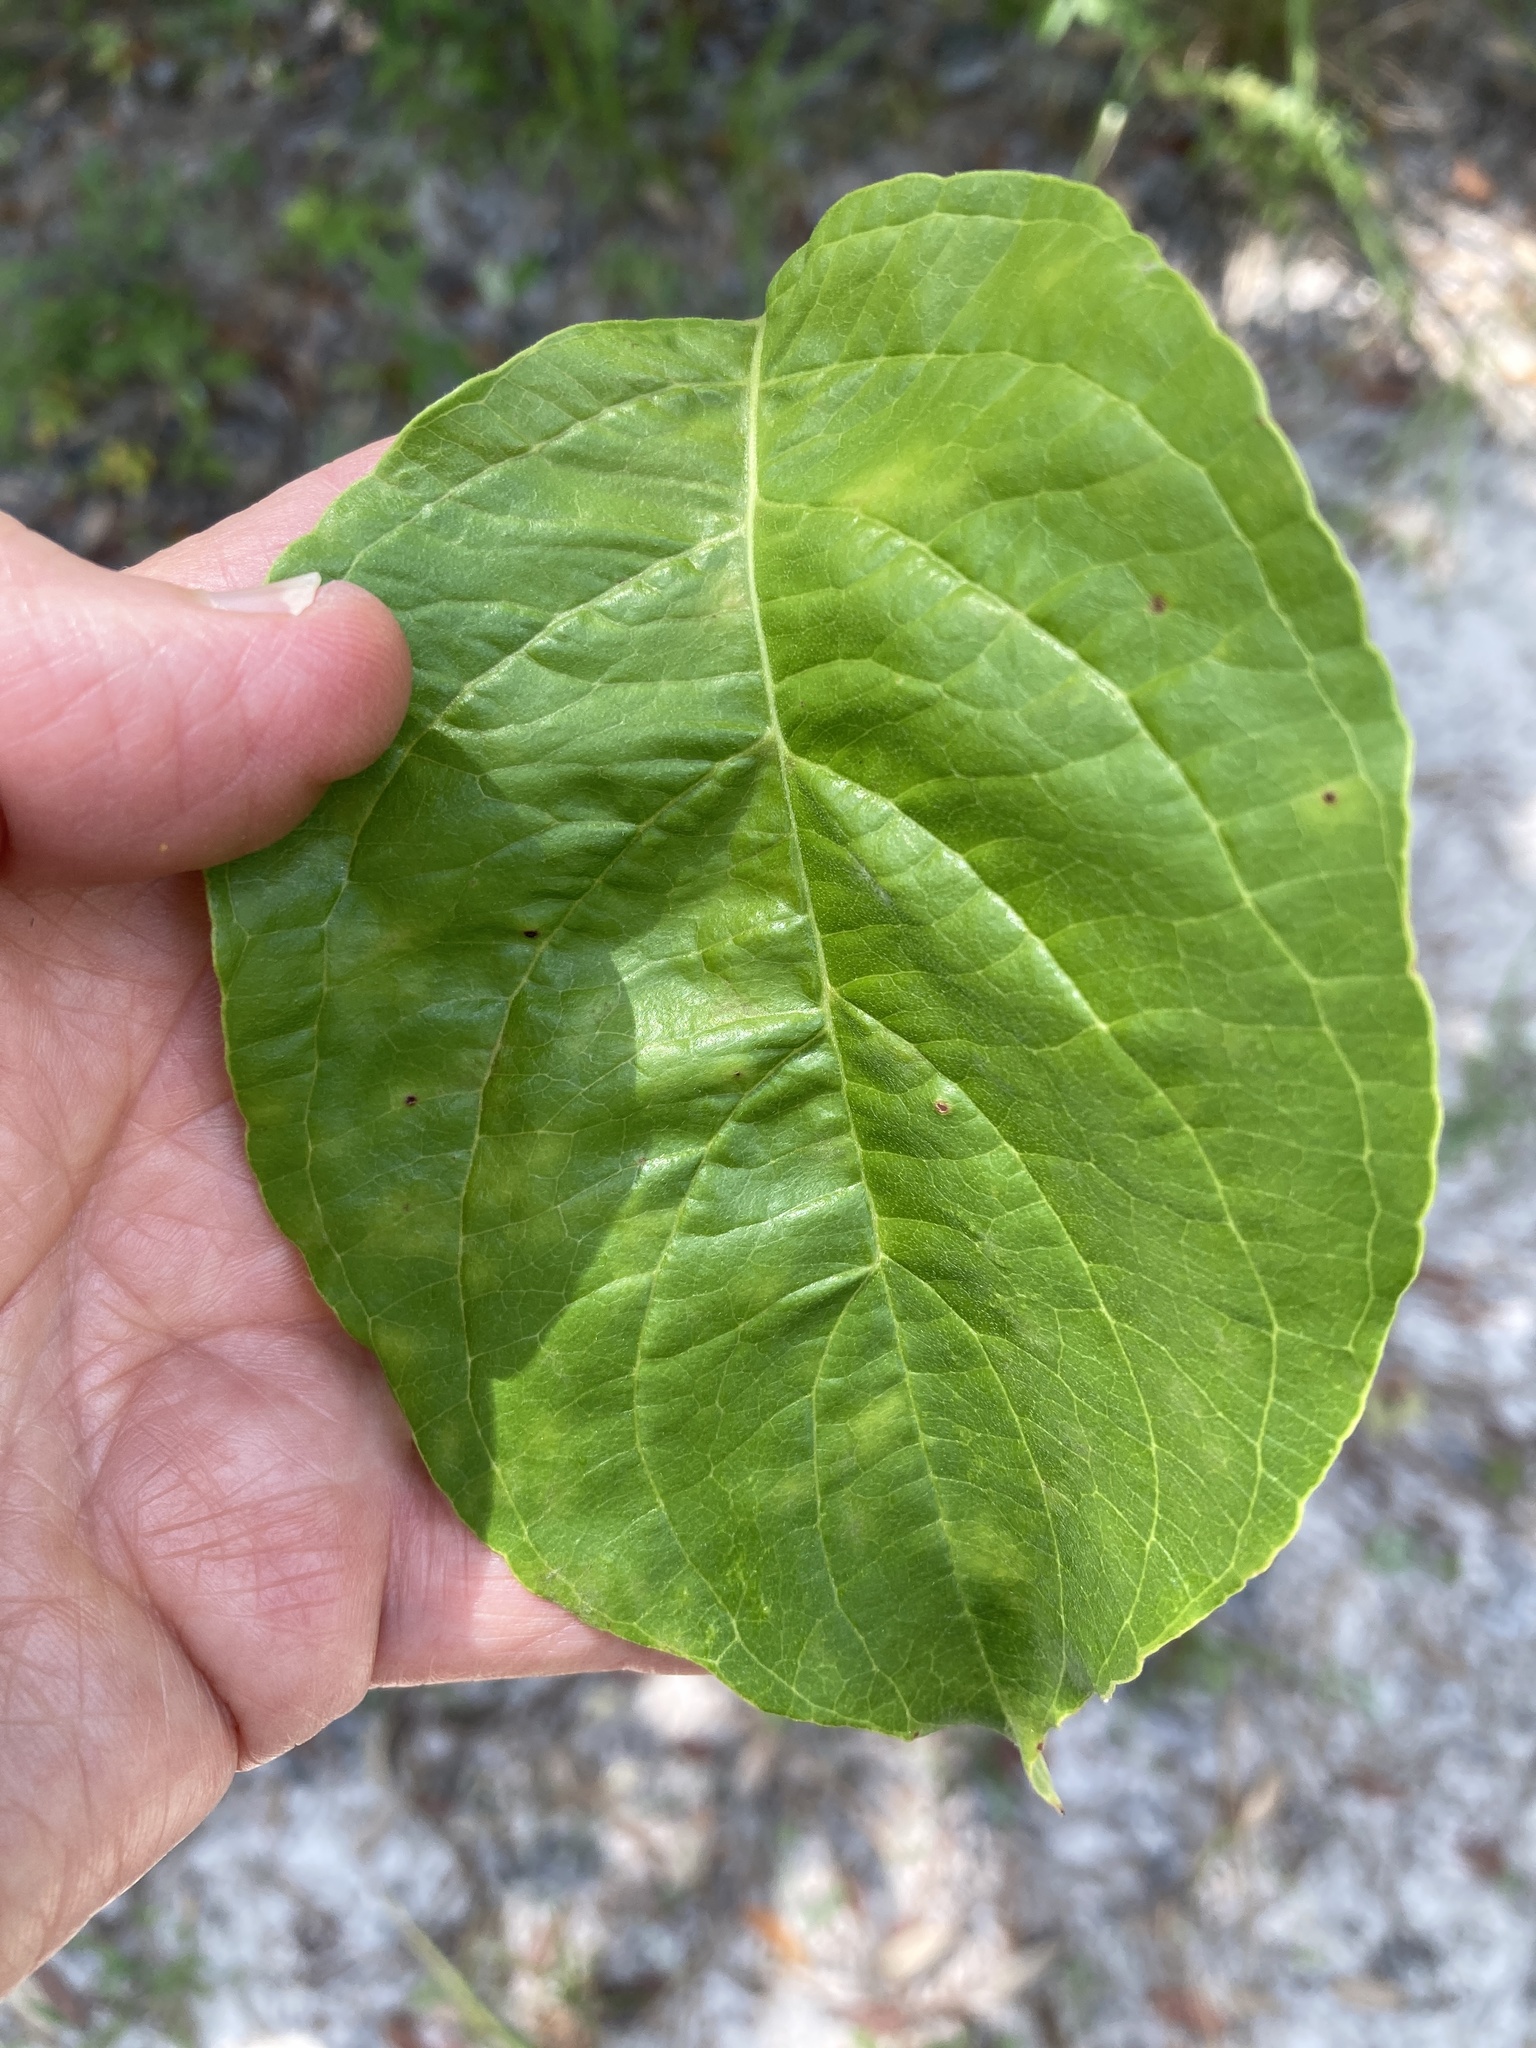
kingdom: Plantae
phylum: Tracheophyta
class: Magnoliopsida
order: Cornales
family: Cornaceae
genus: Cornus
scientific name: Cornus florida
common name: Flowering dogwood
